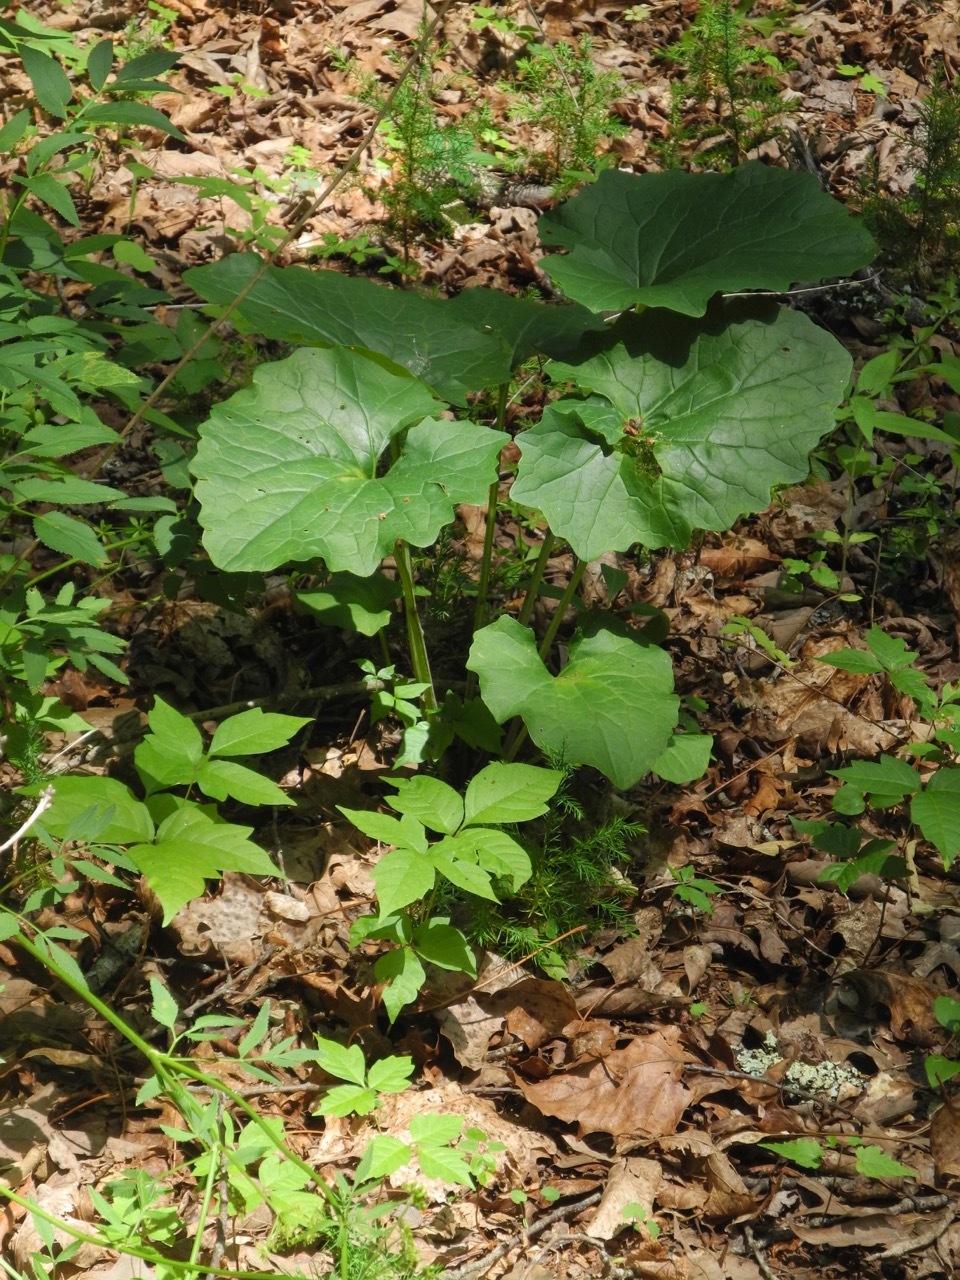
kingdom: Plantae
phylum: Tracheophyta
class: Magnoliopsida
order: Asterales
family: Asteraceae
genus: Arnoglossum
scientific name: Arnoglossum atriplicifolium
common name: Pale indian-plantain
